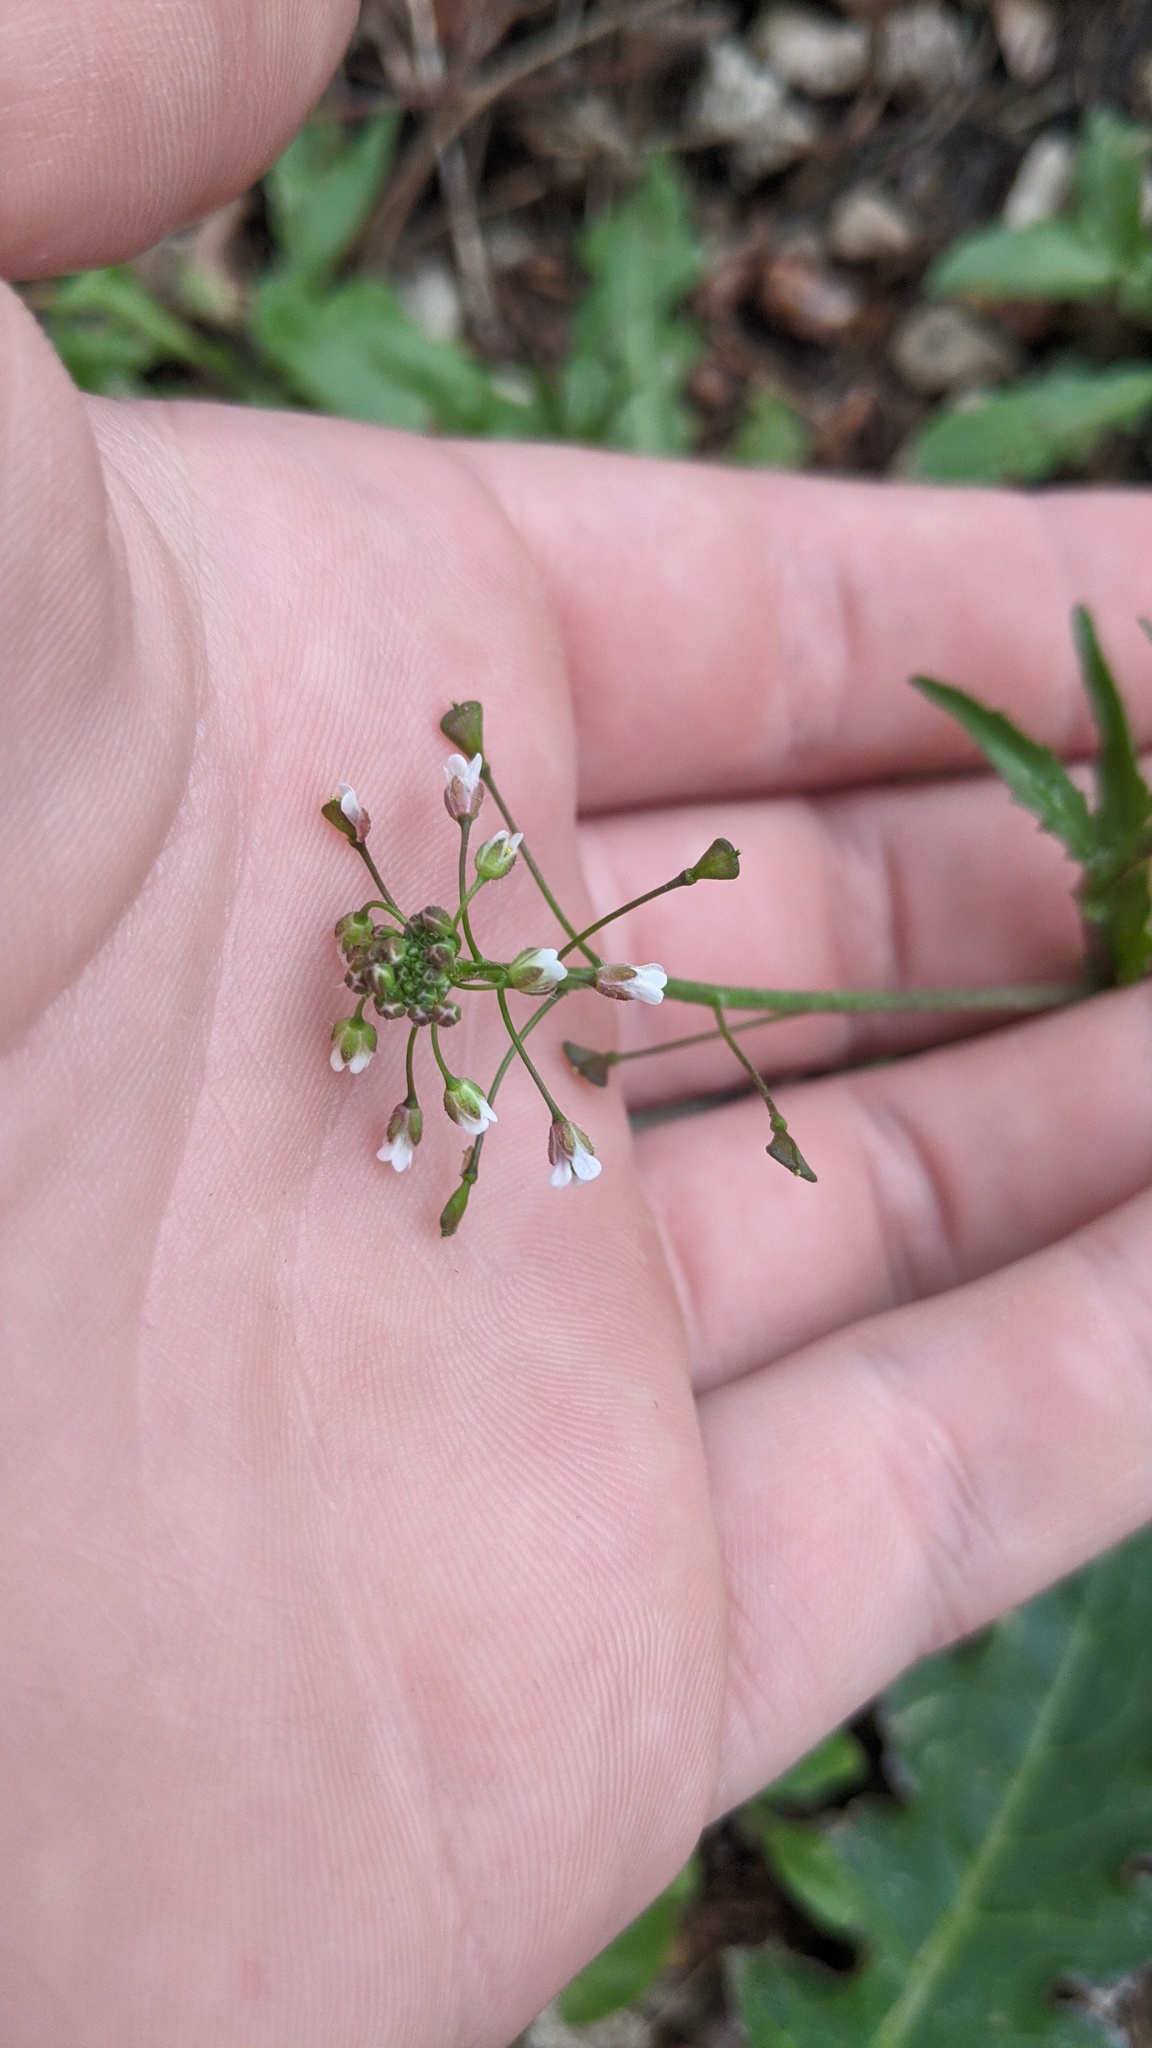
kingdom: Plantae
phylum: Tracheophyta
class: Magnoliopsida
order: Brassicales
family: Brassicaceae
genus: Capsella
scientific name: Capsella bursa-pastoris
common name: Shepherd's purse
